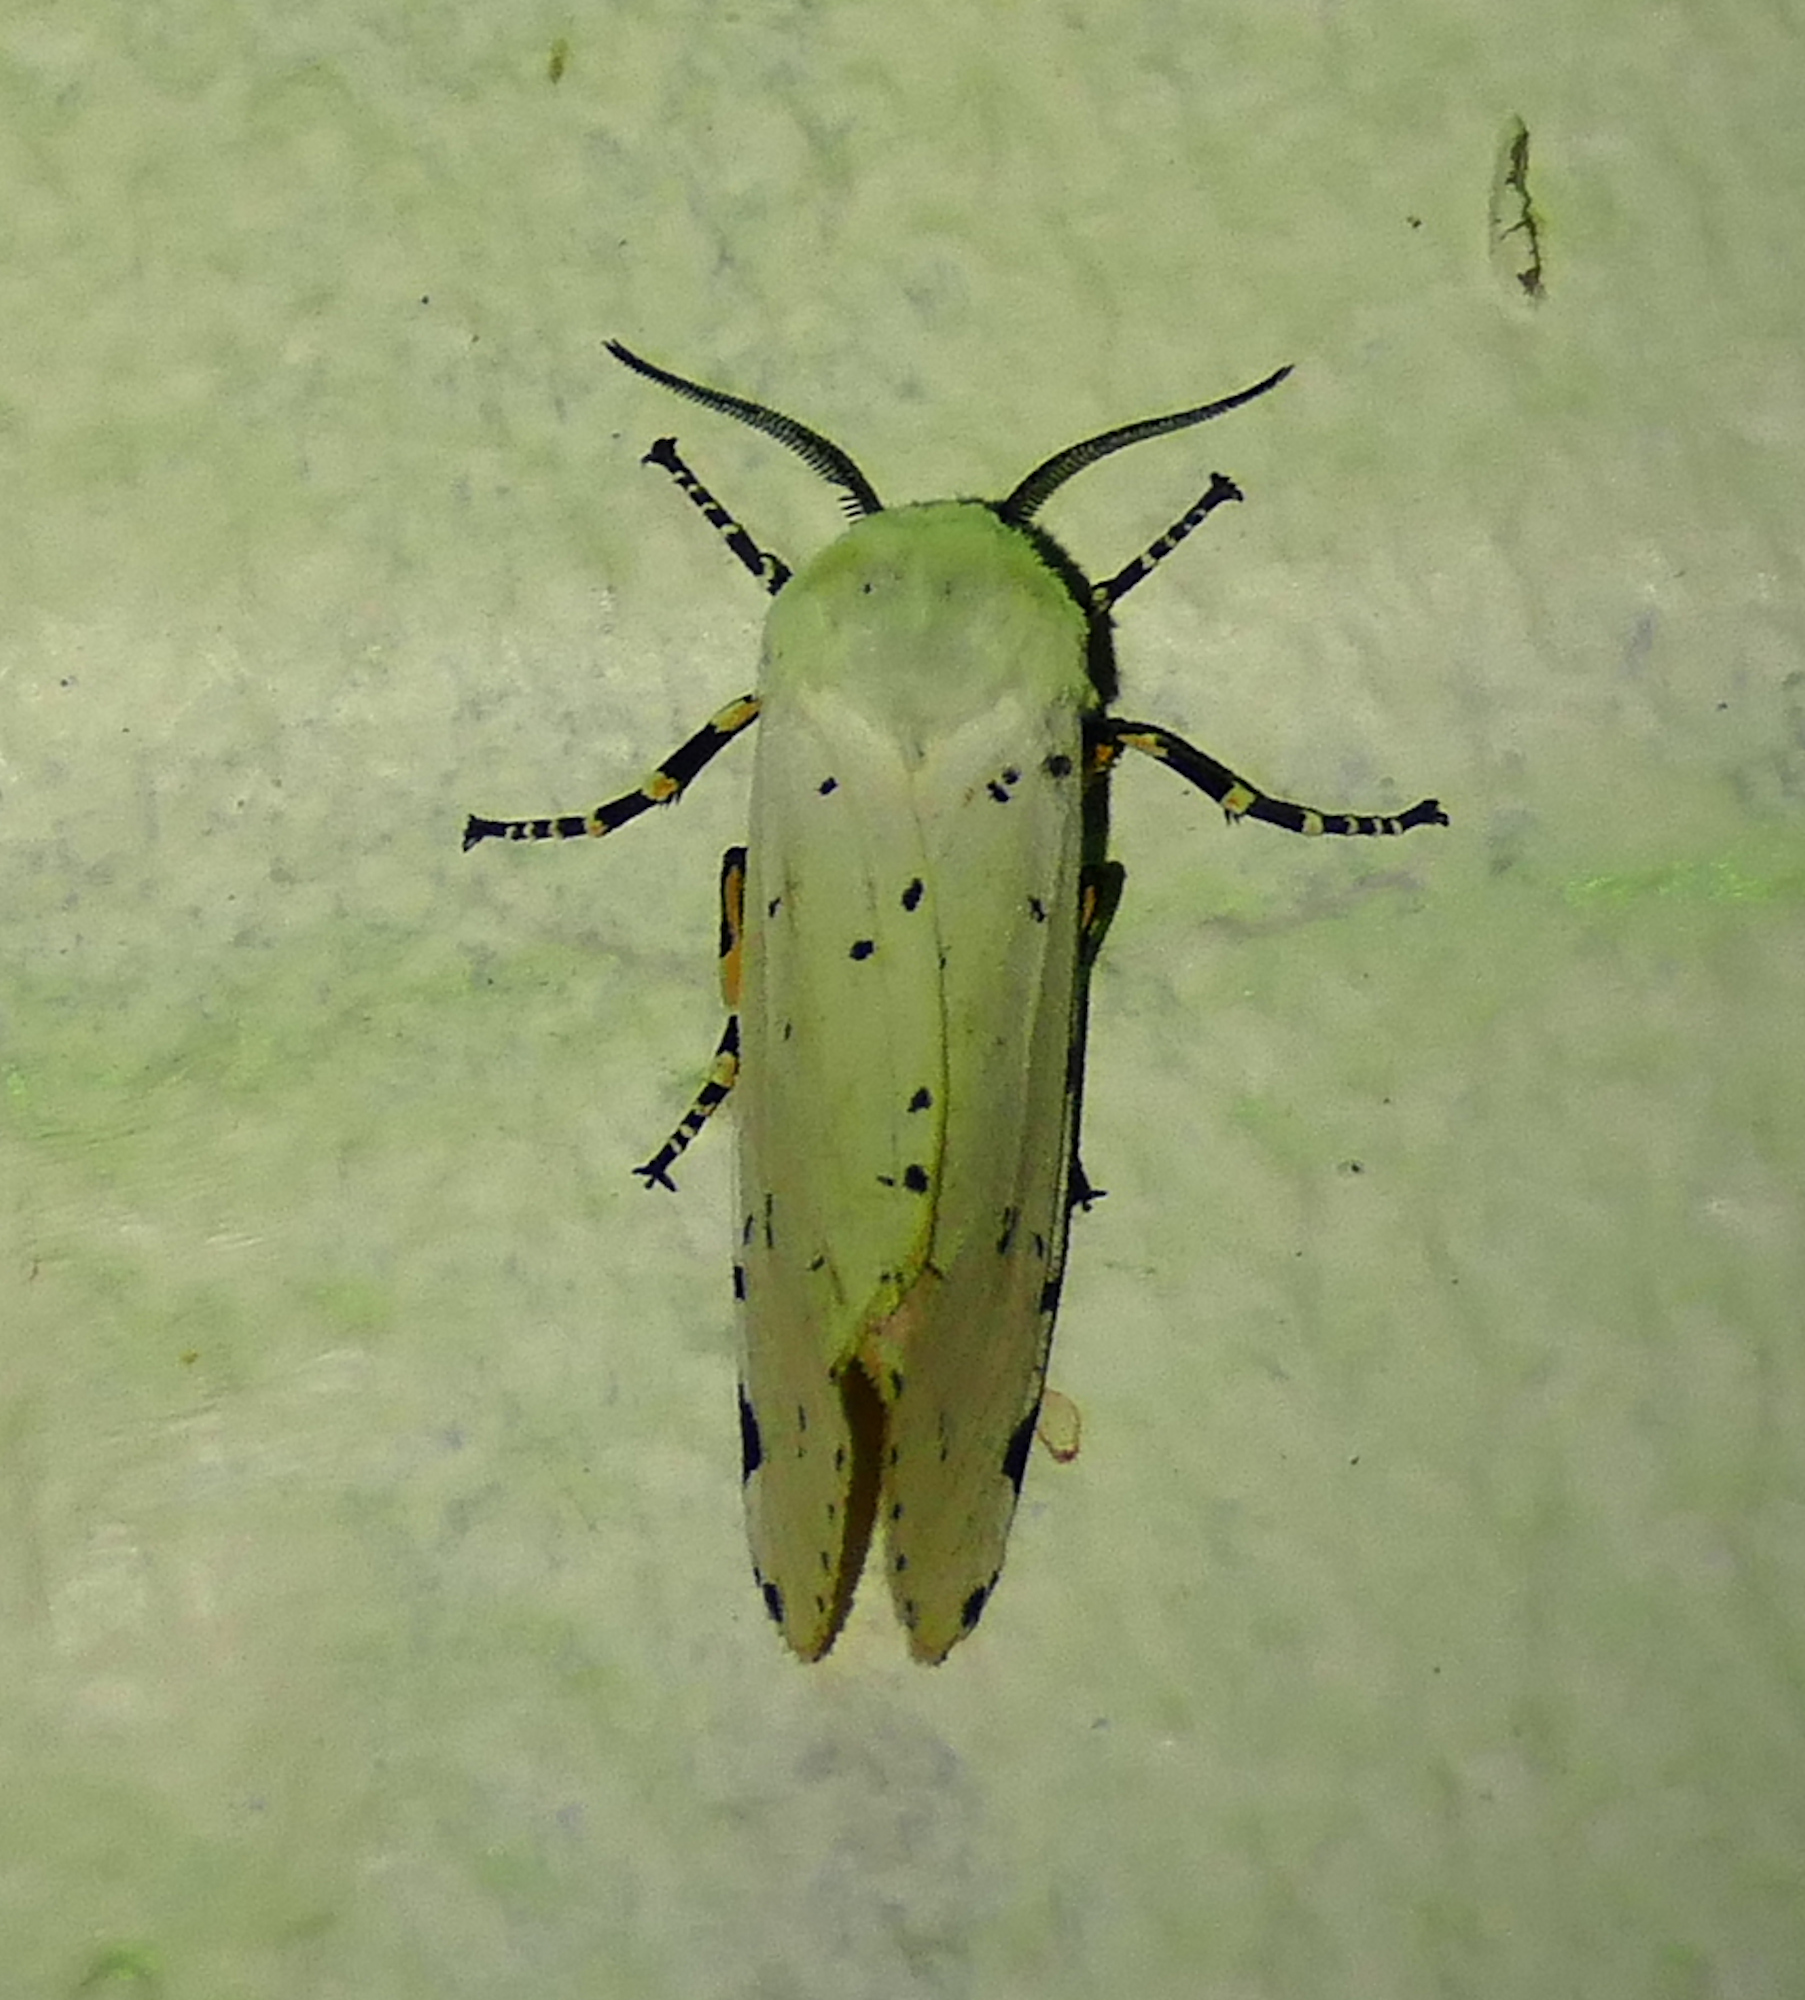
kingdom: Animalia
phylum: Arthropoda
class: Insecta
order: Lepidoptera
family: Erebidae
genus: Estigmene
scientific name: Estigmene acrea
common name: Salt marsh moth
